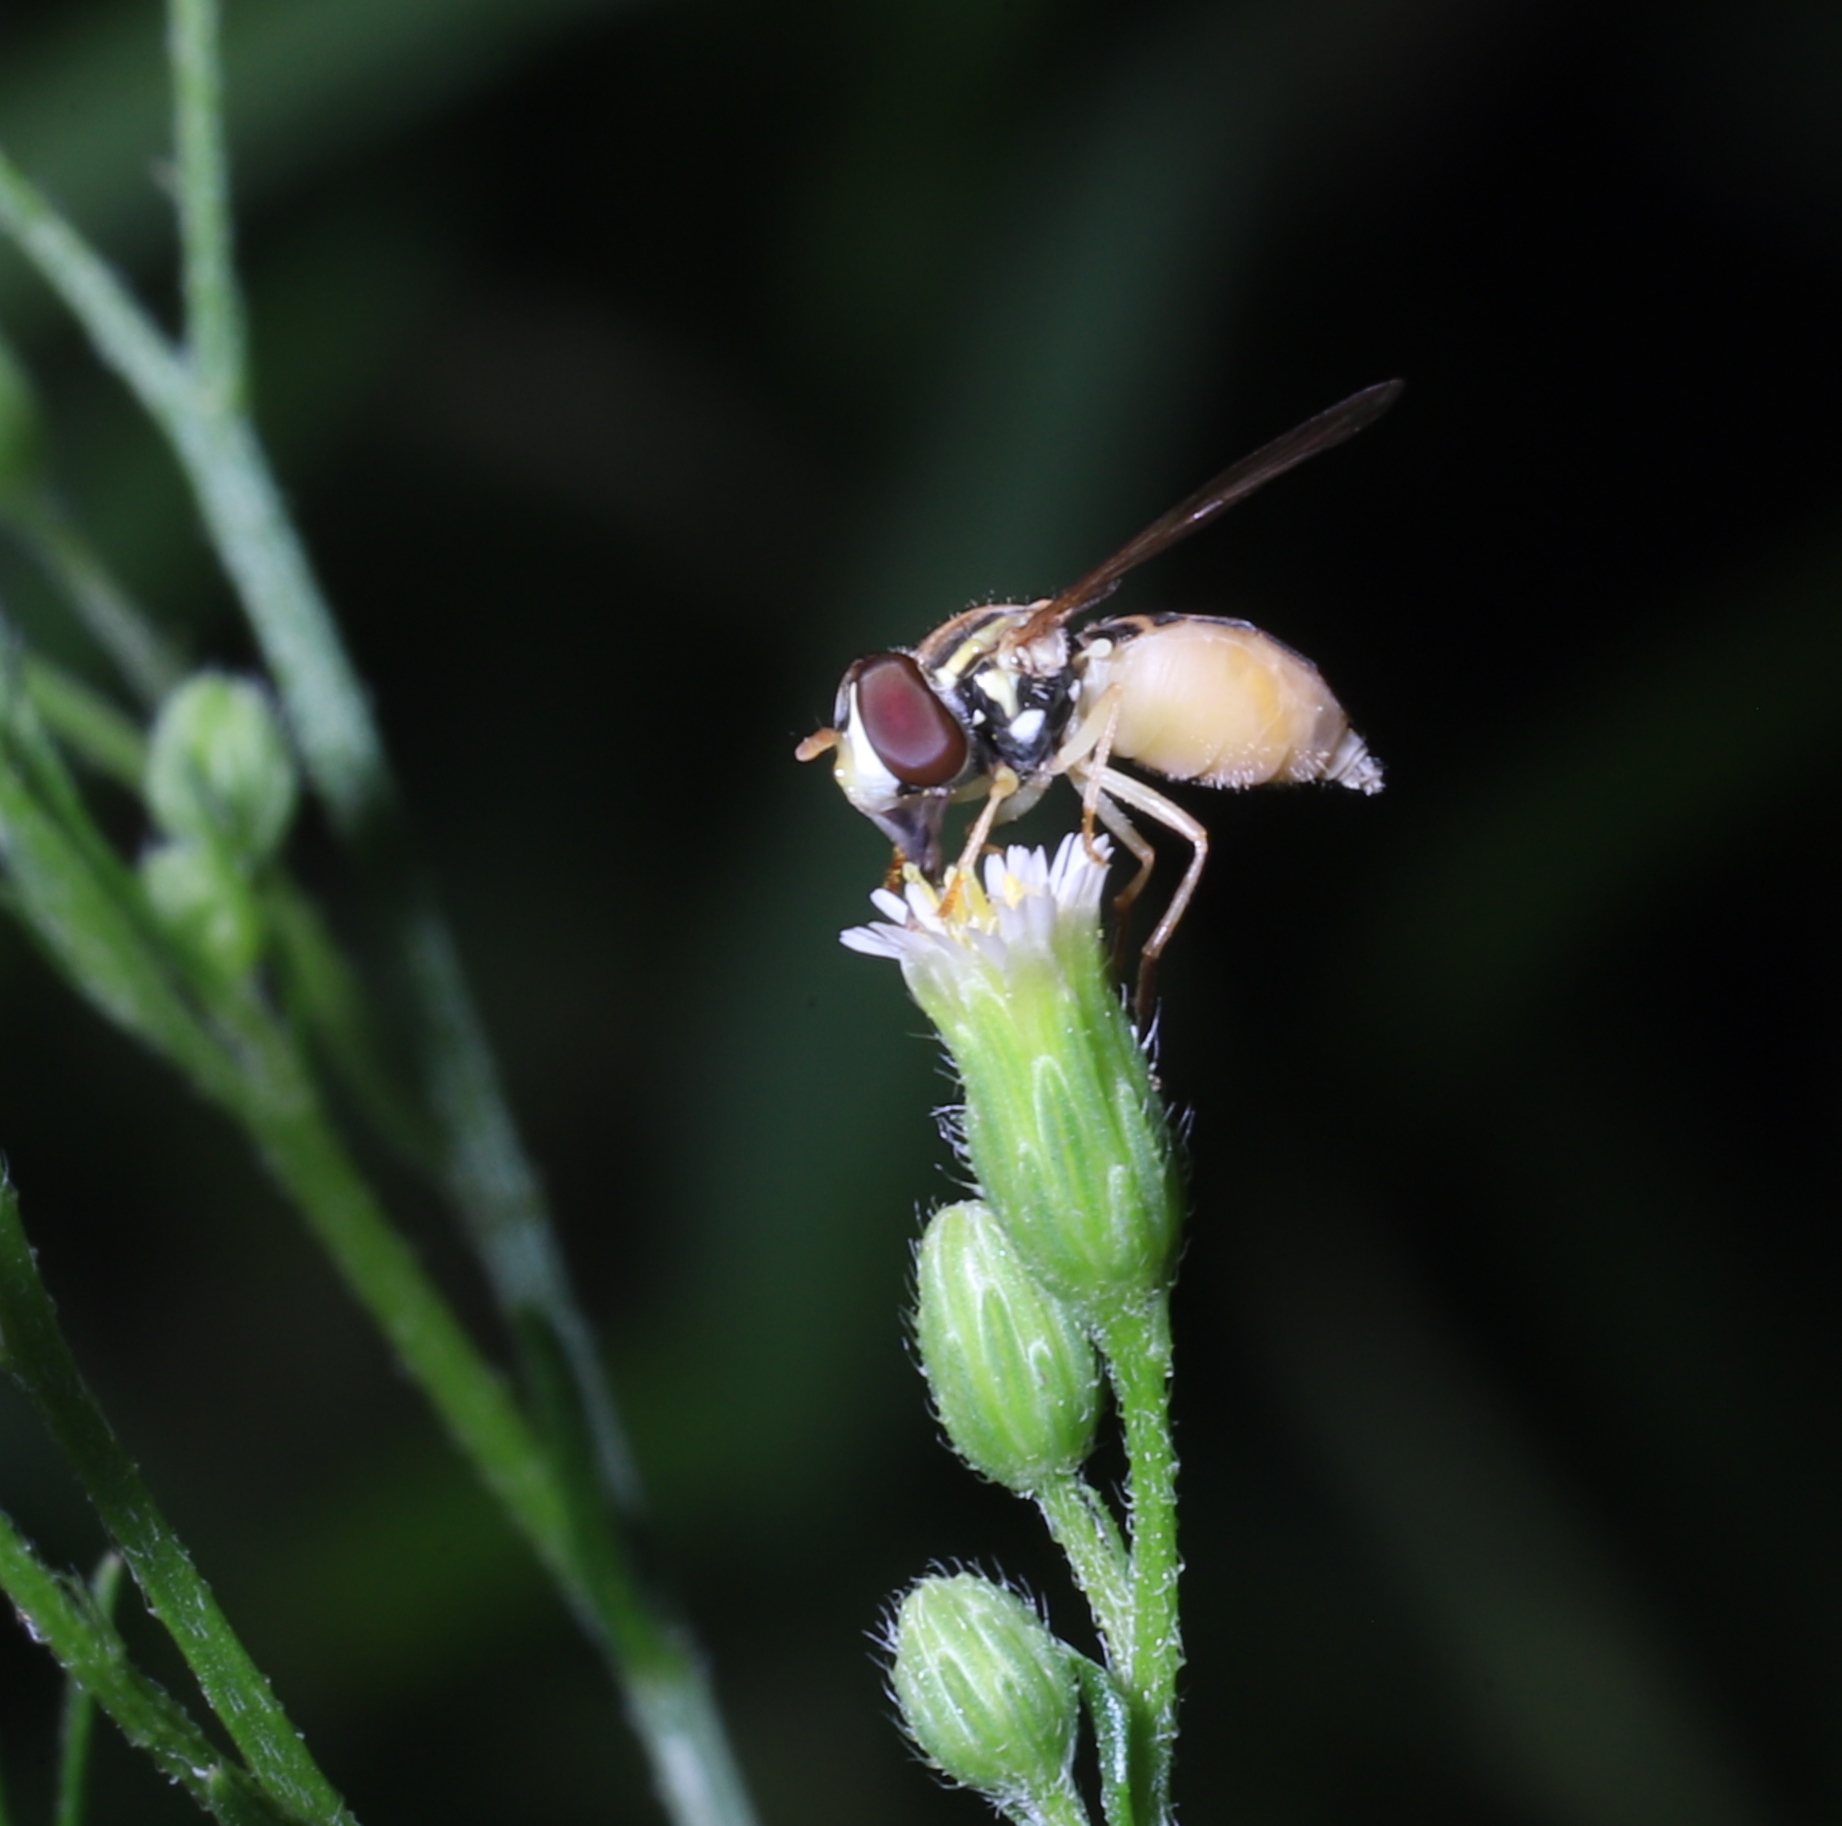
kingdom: Animalia
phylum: Arthropoda
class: Insecta
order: Diptera
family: Syrphidae
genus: Toxomerus
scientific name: Toxomerus marginatus
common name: Syrphid fly
